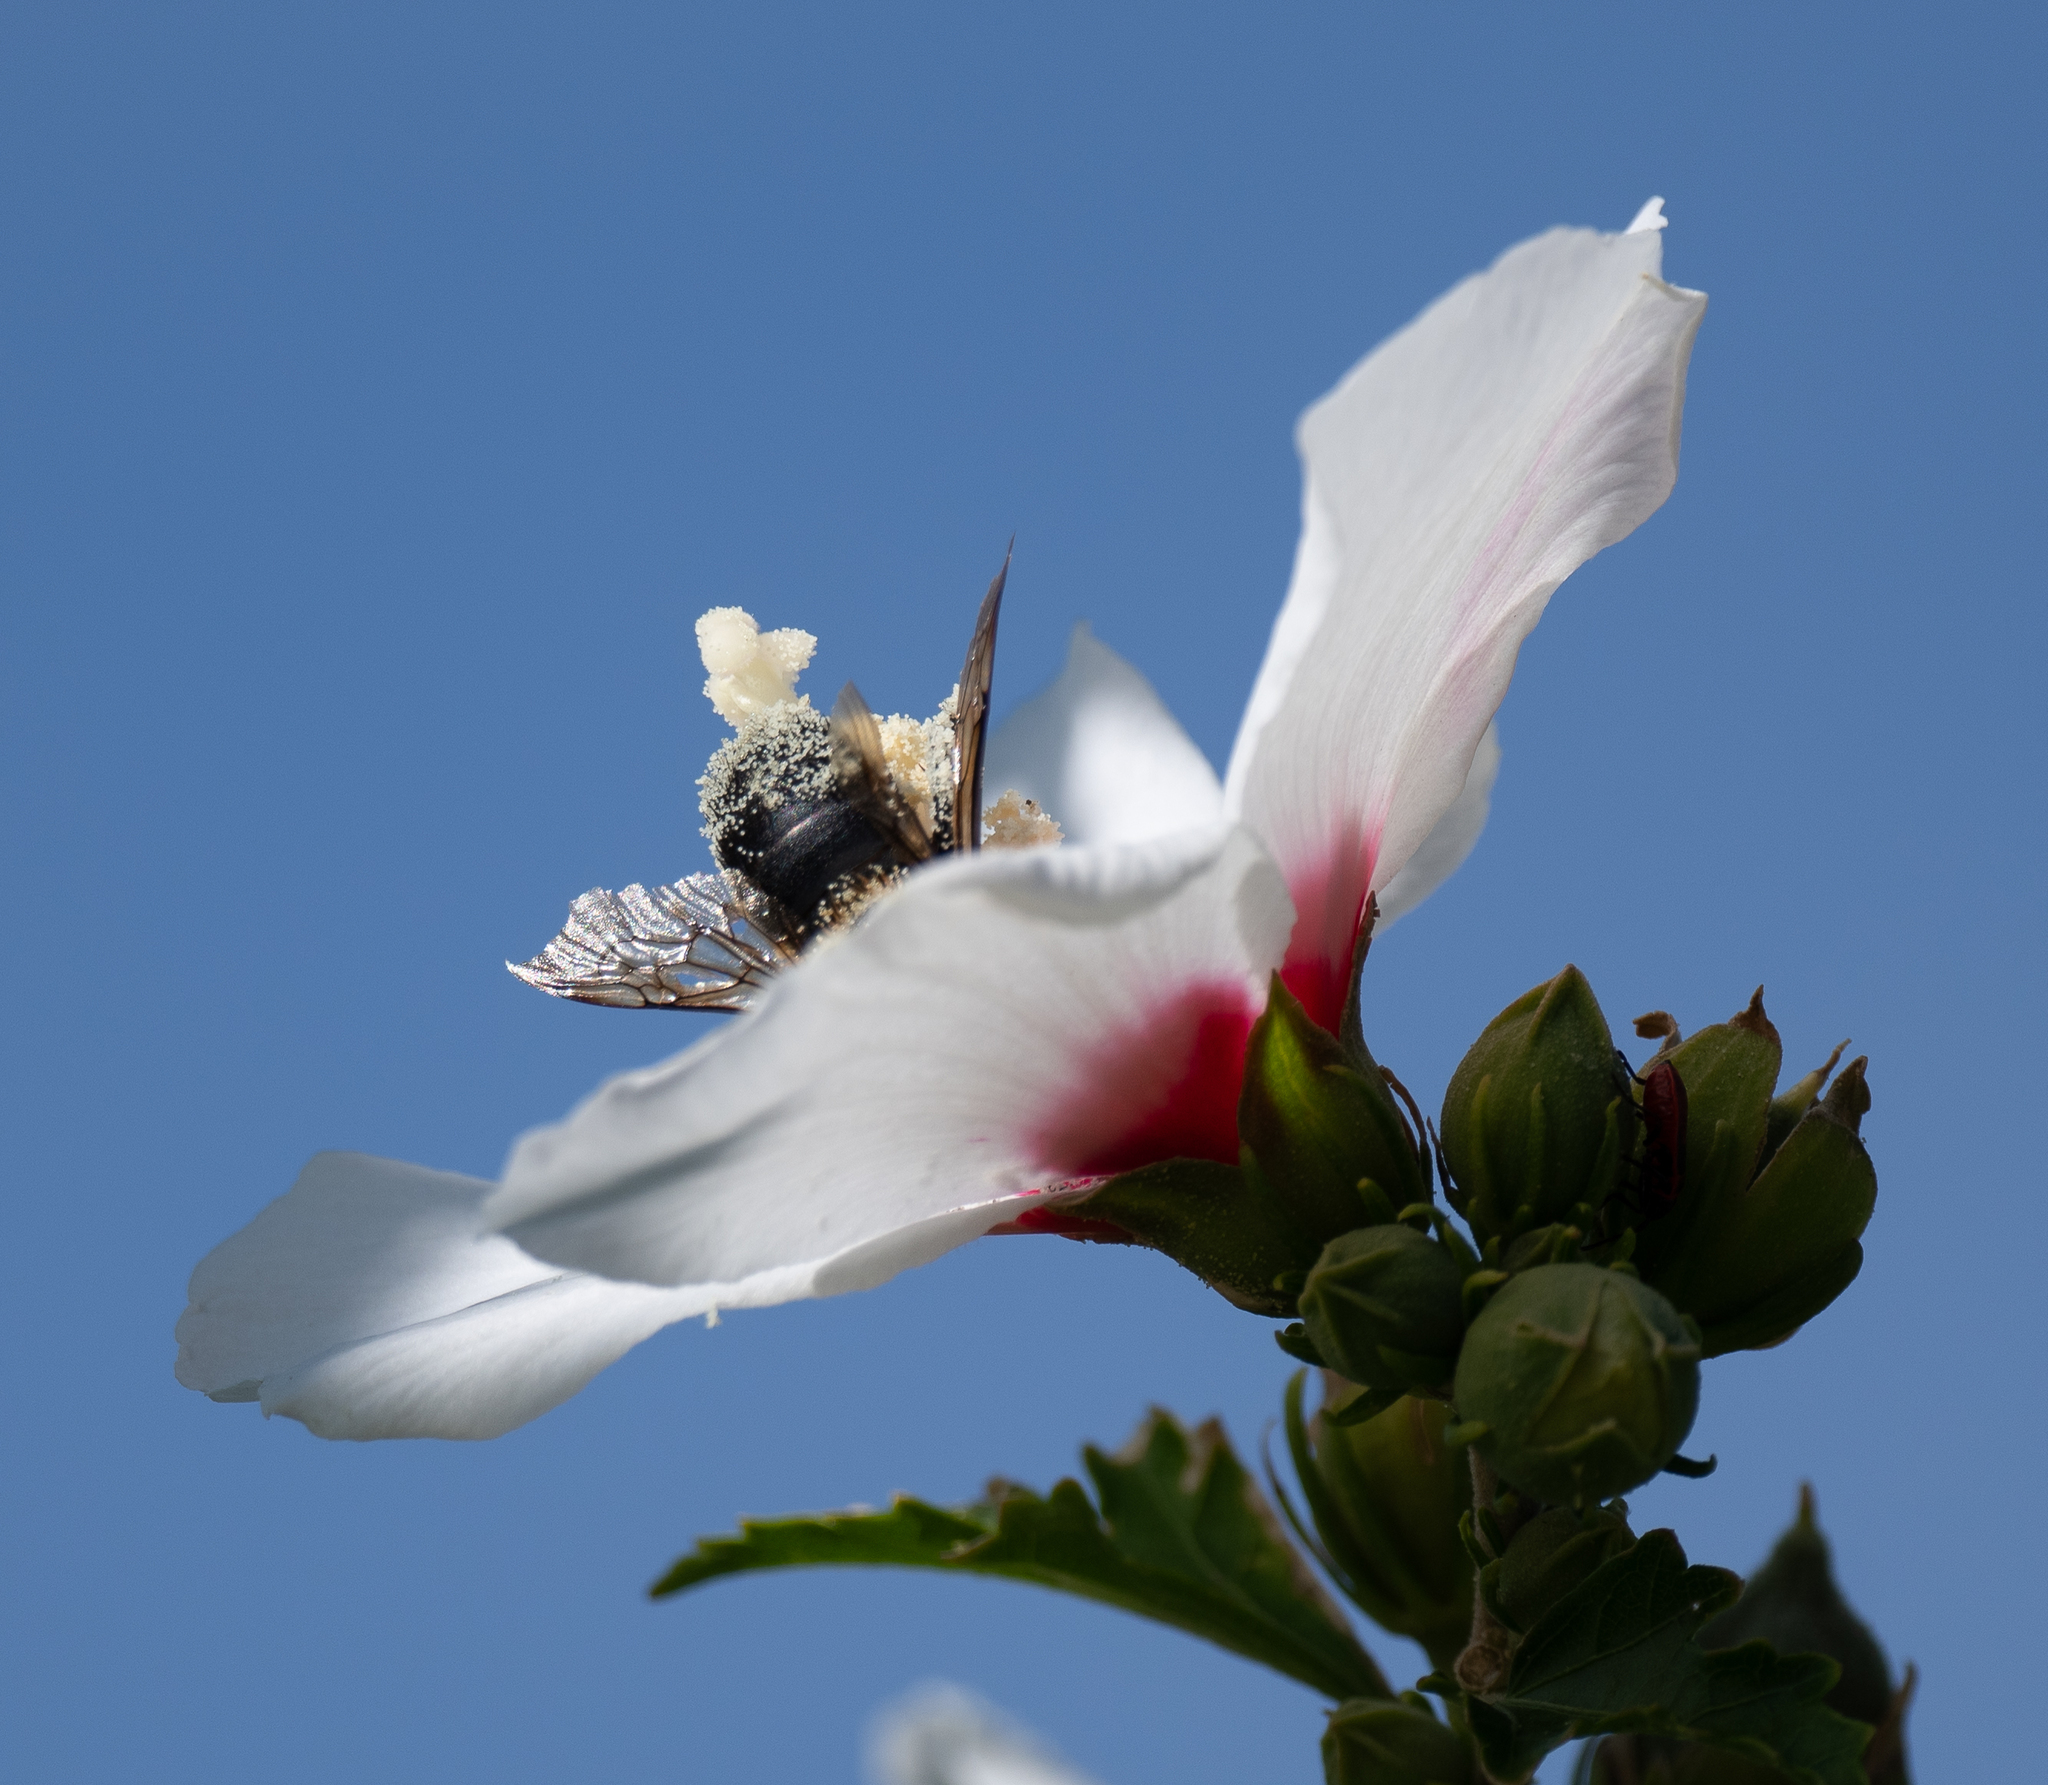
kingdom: Animalia
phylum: Arthropoda
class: Insecta
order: Hymenoptera
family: Apidae
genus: Bombus
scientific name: Bombus griseocollis
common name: Brown-belted bumble bee
